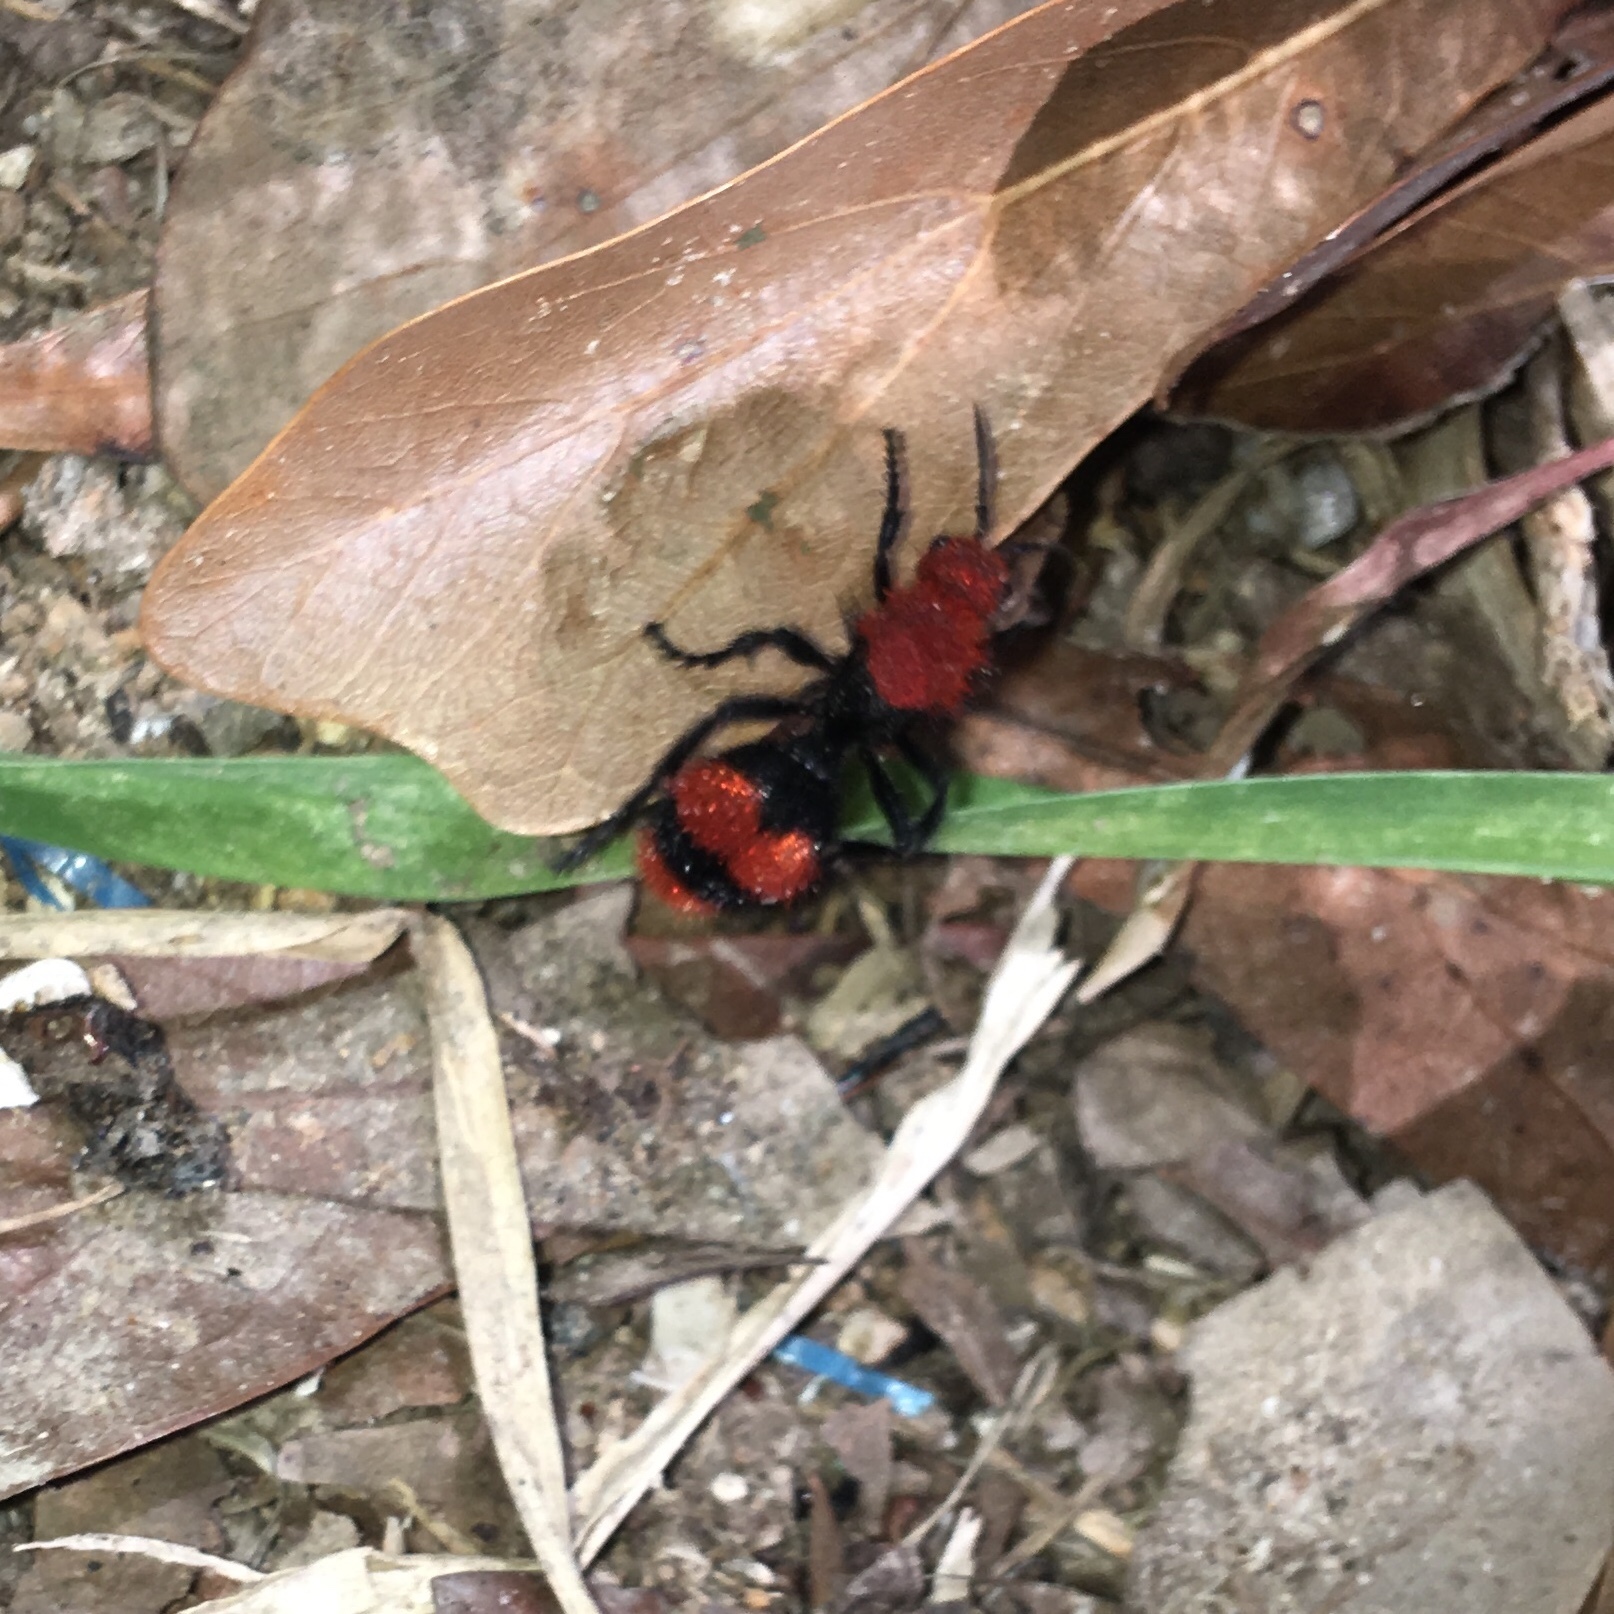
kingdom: Animalia
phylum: Arthropoda
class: Insecta
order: Hymenoptera
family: Mutillidae
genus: Dasymutilla
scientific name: Dasymutilla occidentalis
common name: Common eastern velvet ant
